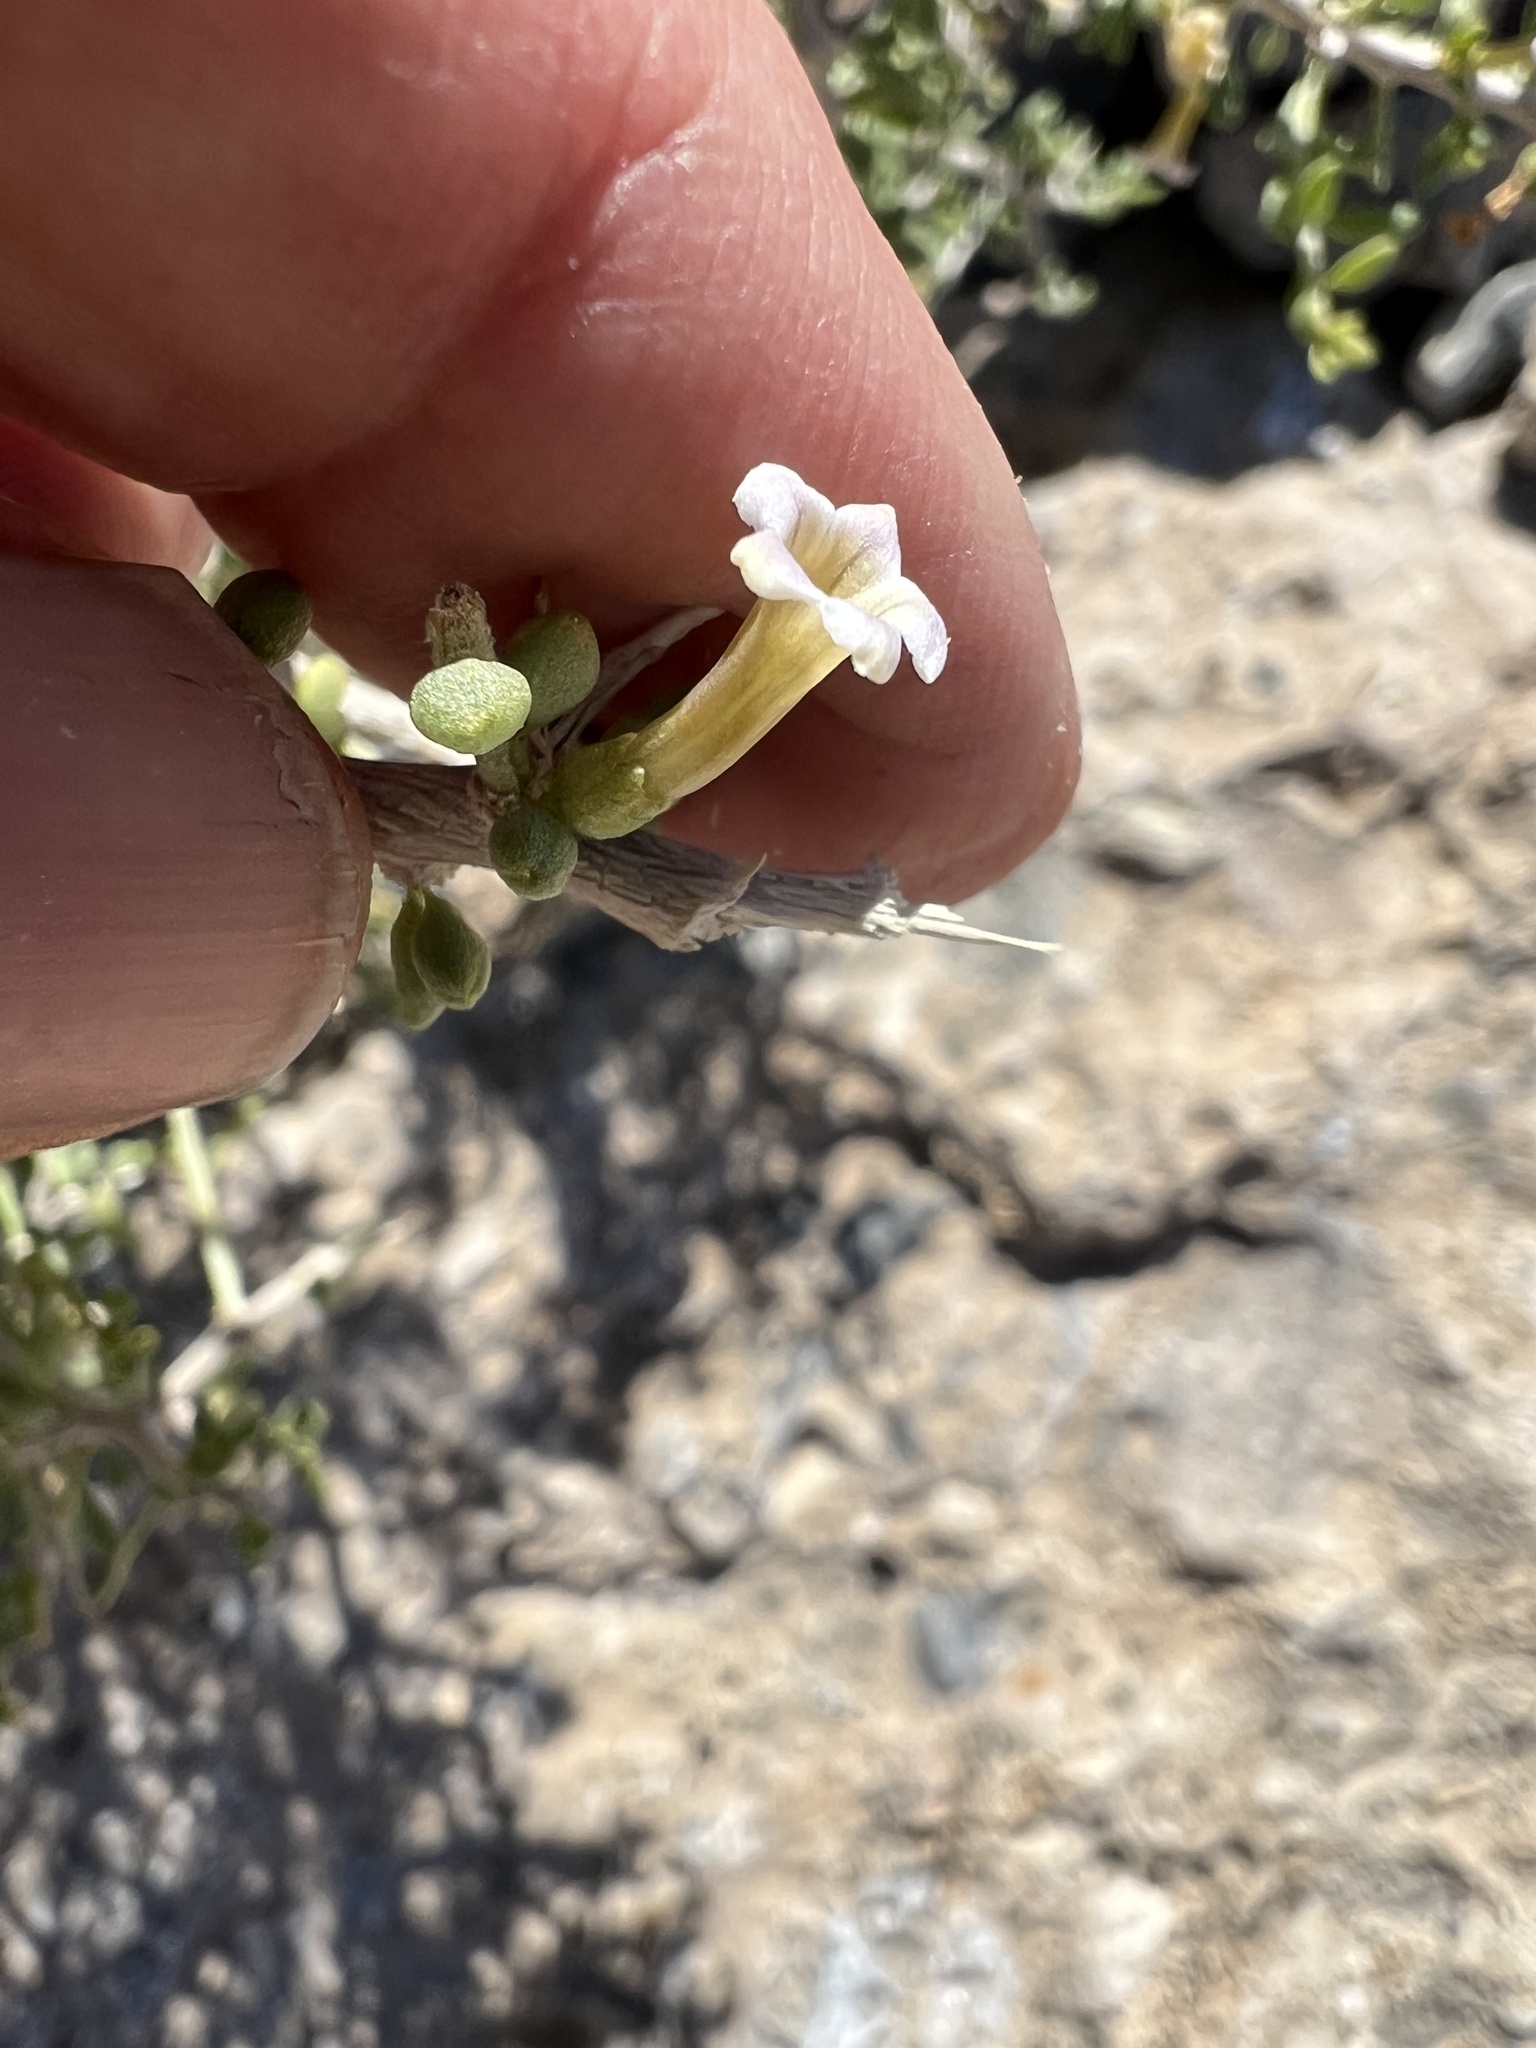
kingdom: Plantae
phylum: Tracheophyta
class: Magnoliopsida
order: Solanales
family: Solanaceae
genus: Lycium
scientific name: Lycium andersonii
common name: Water-jacket
